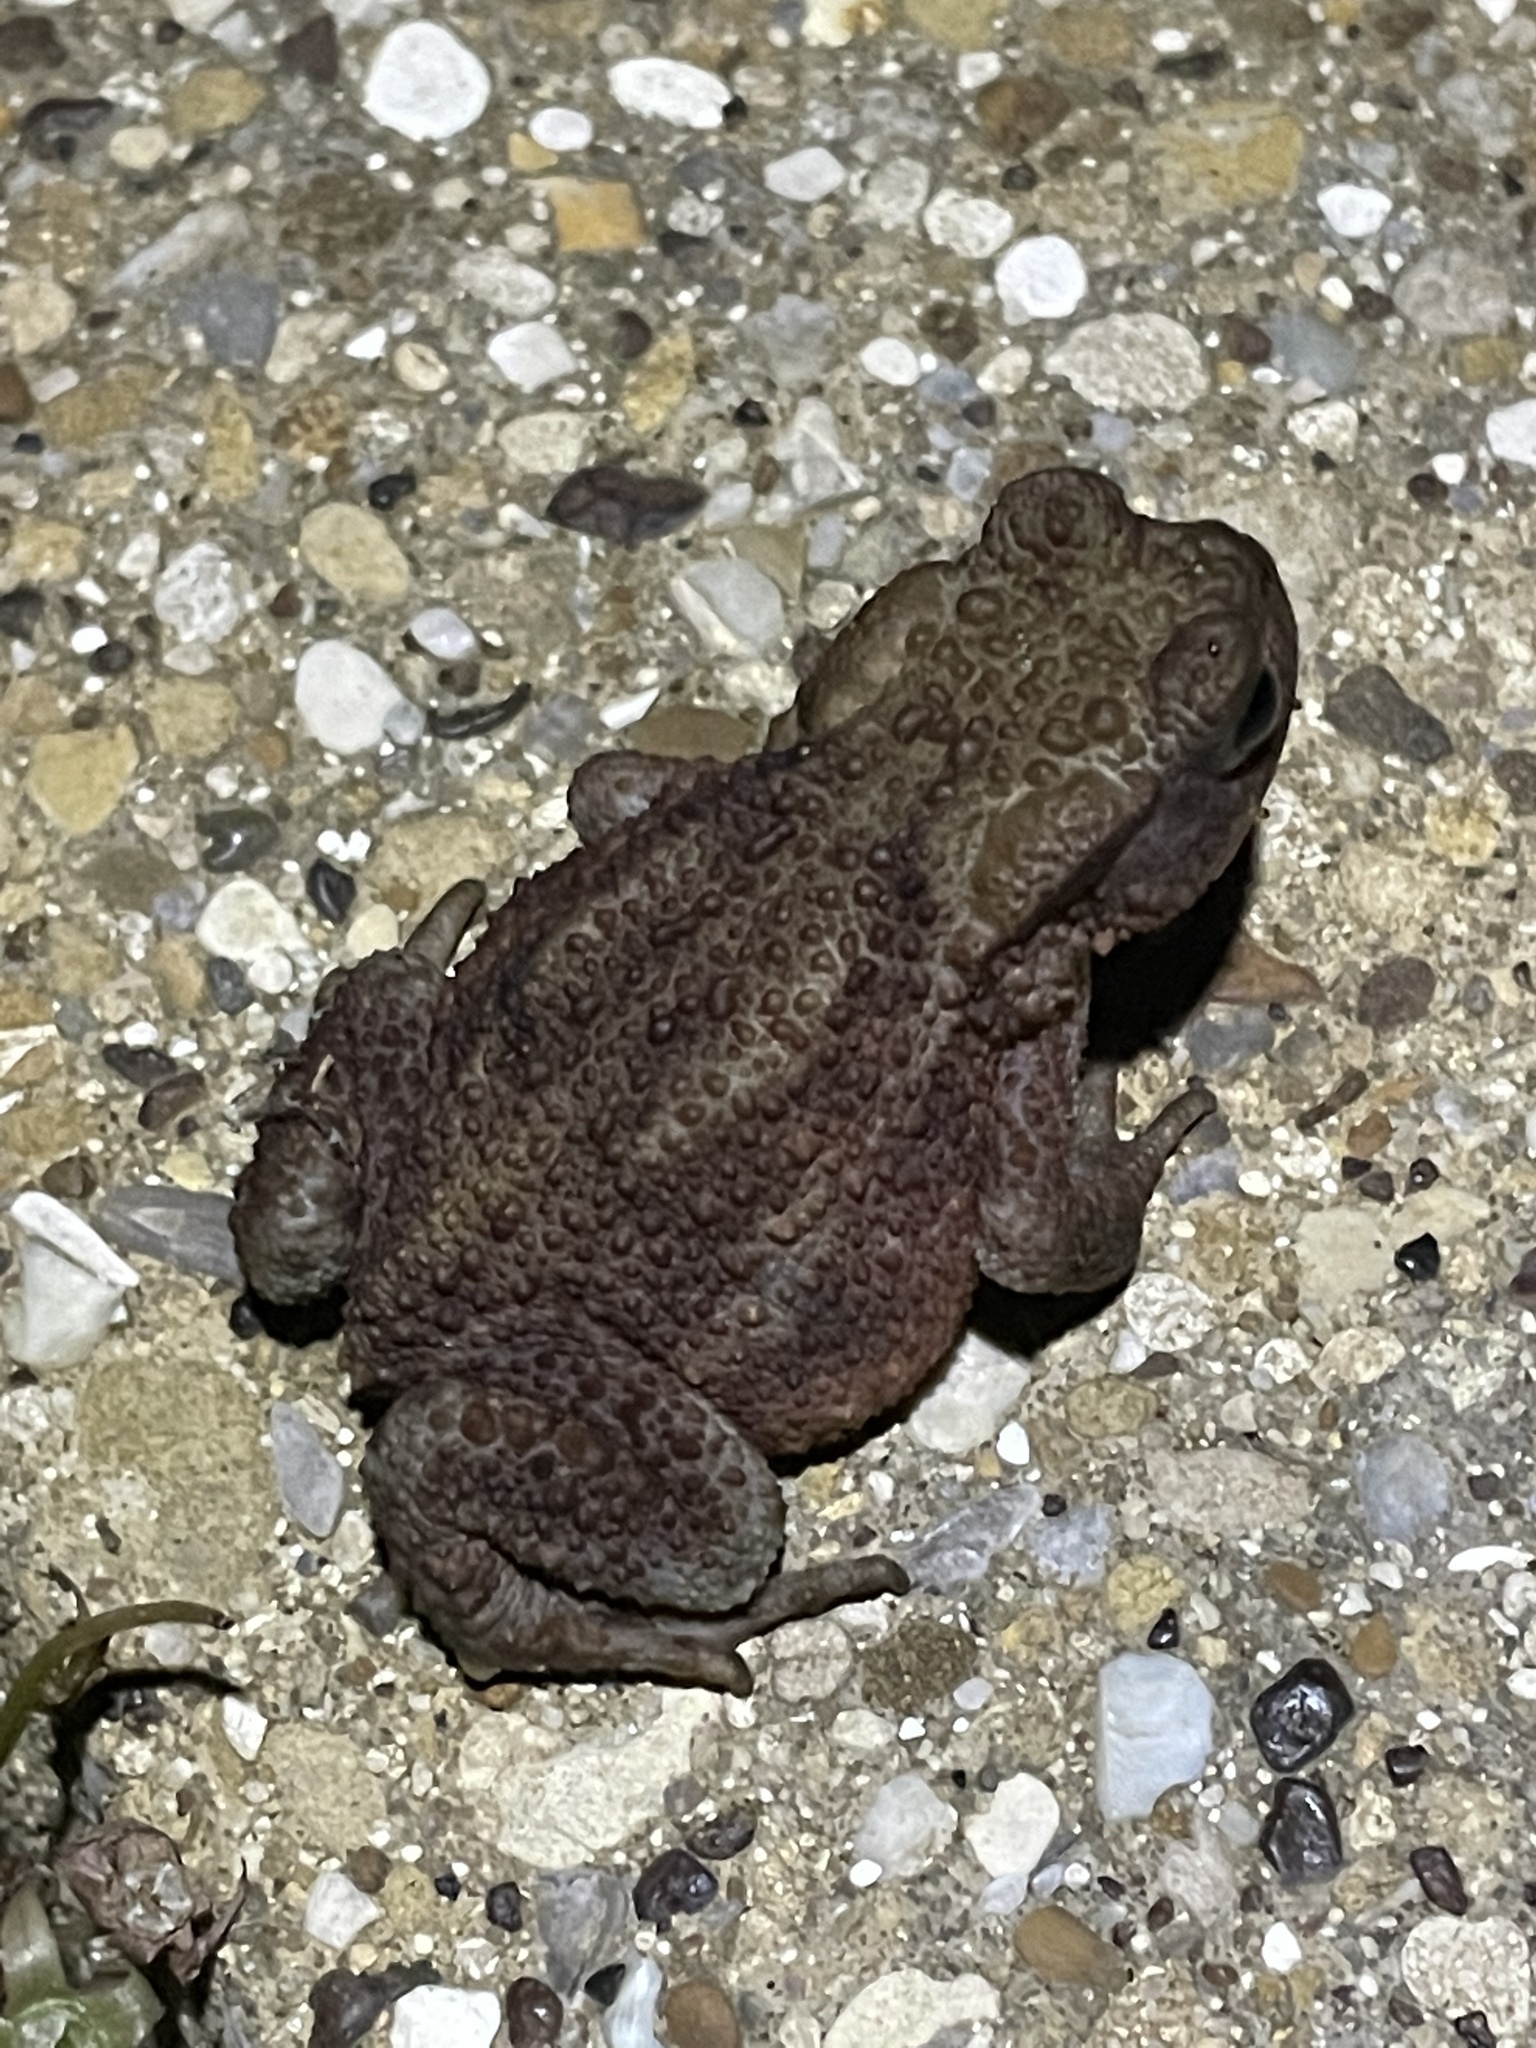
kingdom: Animalia
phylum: Chordata
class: Amphibia
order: Anura
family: Bufonidae
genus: Bufo
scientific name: Bufo bufo
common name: Common toad
